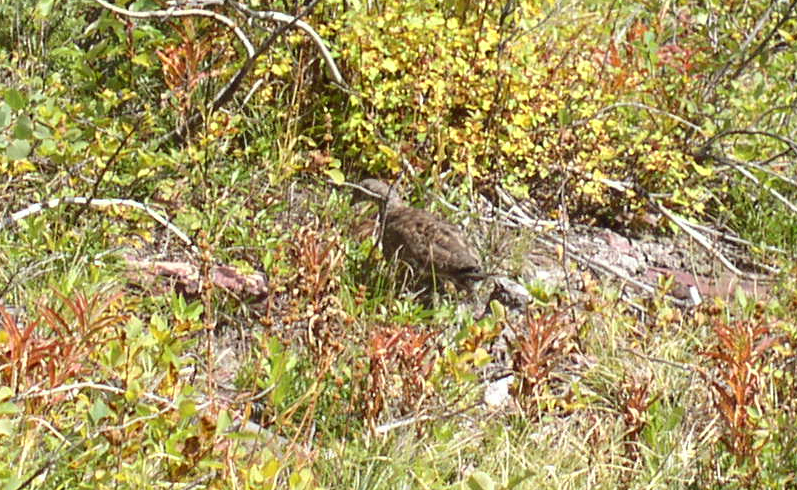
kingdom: Animalia
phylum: Chordata
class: Aves
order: Galliformes
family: Phasianidae
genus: Dendragapus
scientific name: Dendragapus obscurus
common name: Dusky grouse
